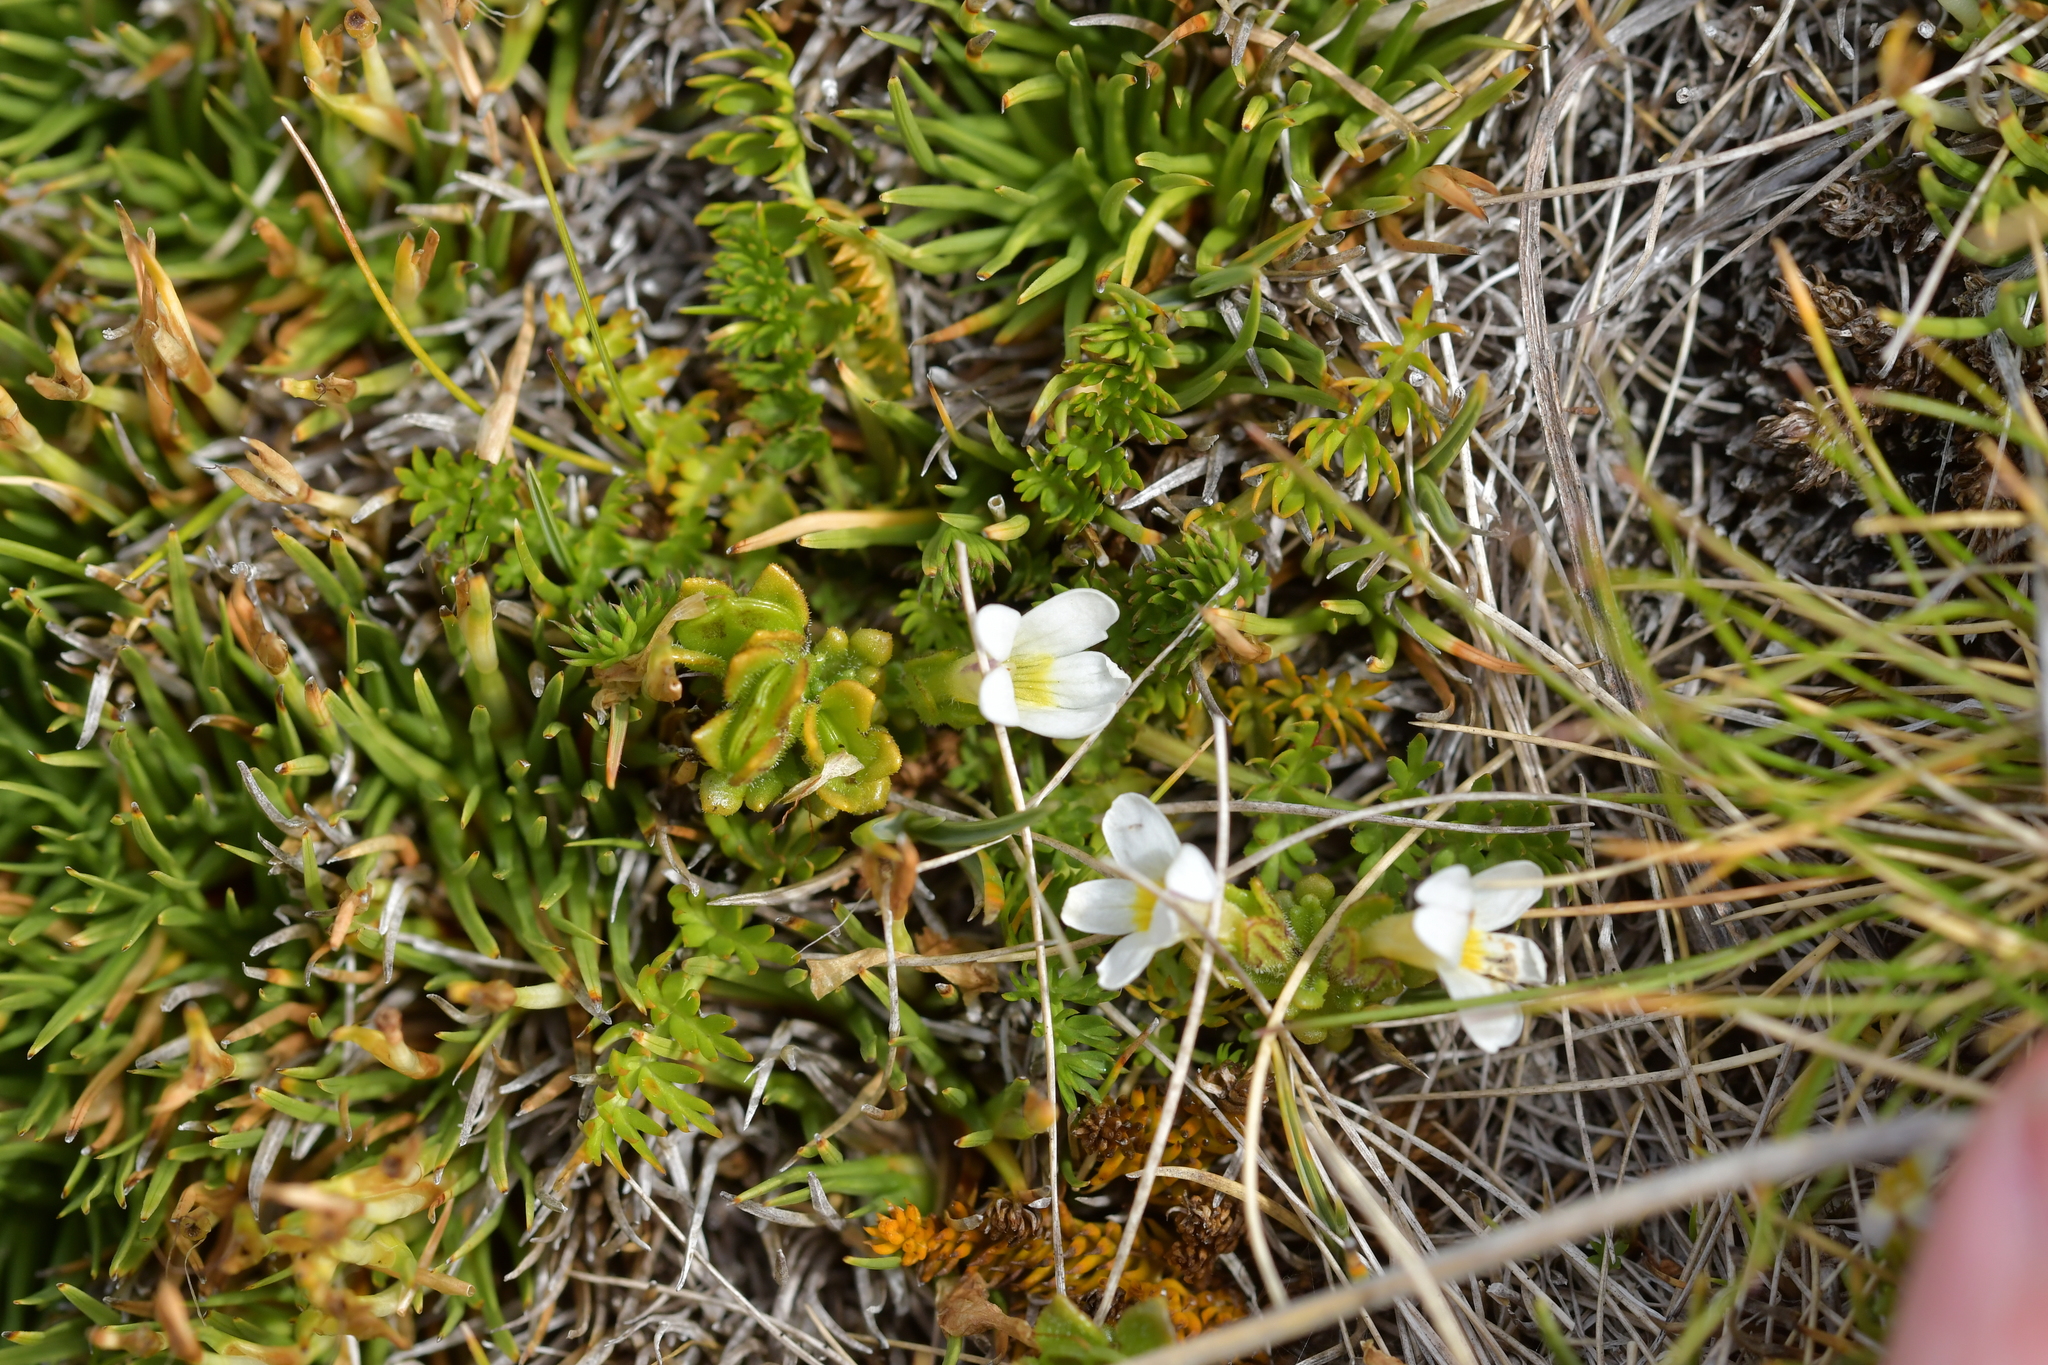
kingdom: Plantae
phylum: Tracheophyta
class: Magnoliopsida
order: Lamiales
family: Orobanchaceae
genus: Euphrasia
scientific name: Euphrasia zelandica
